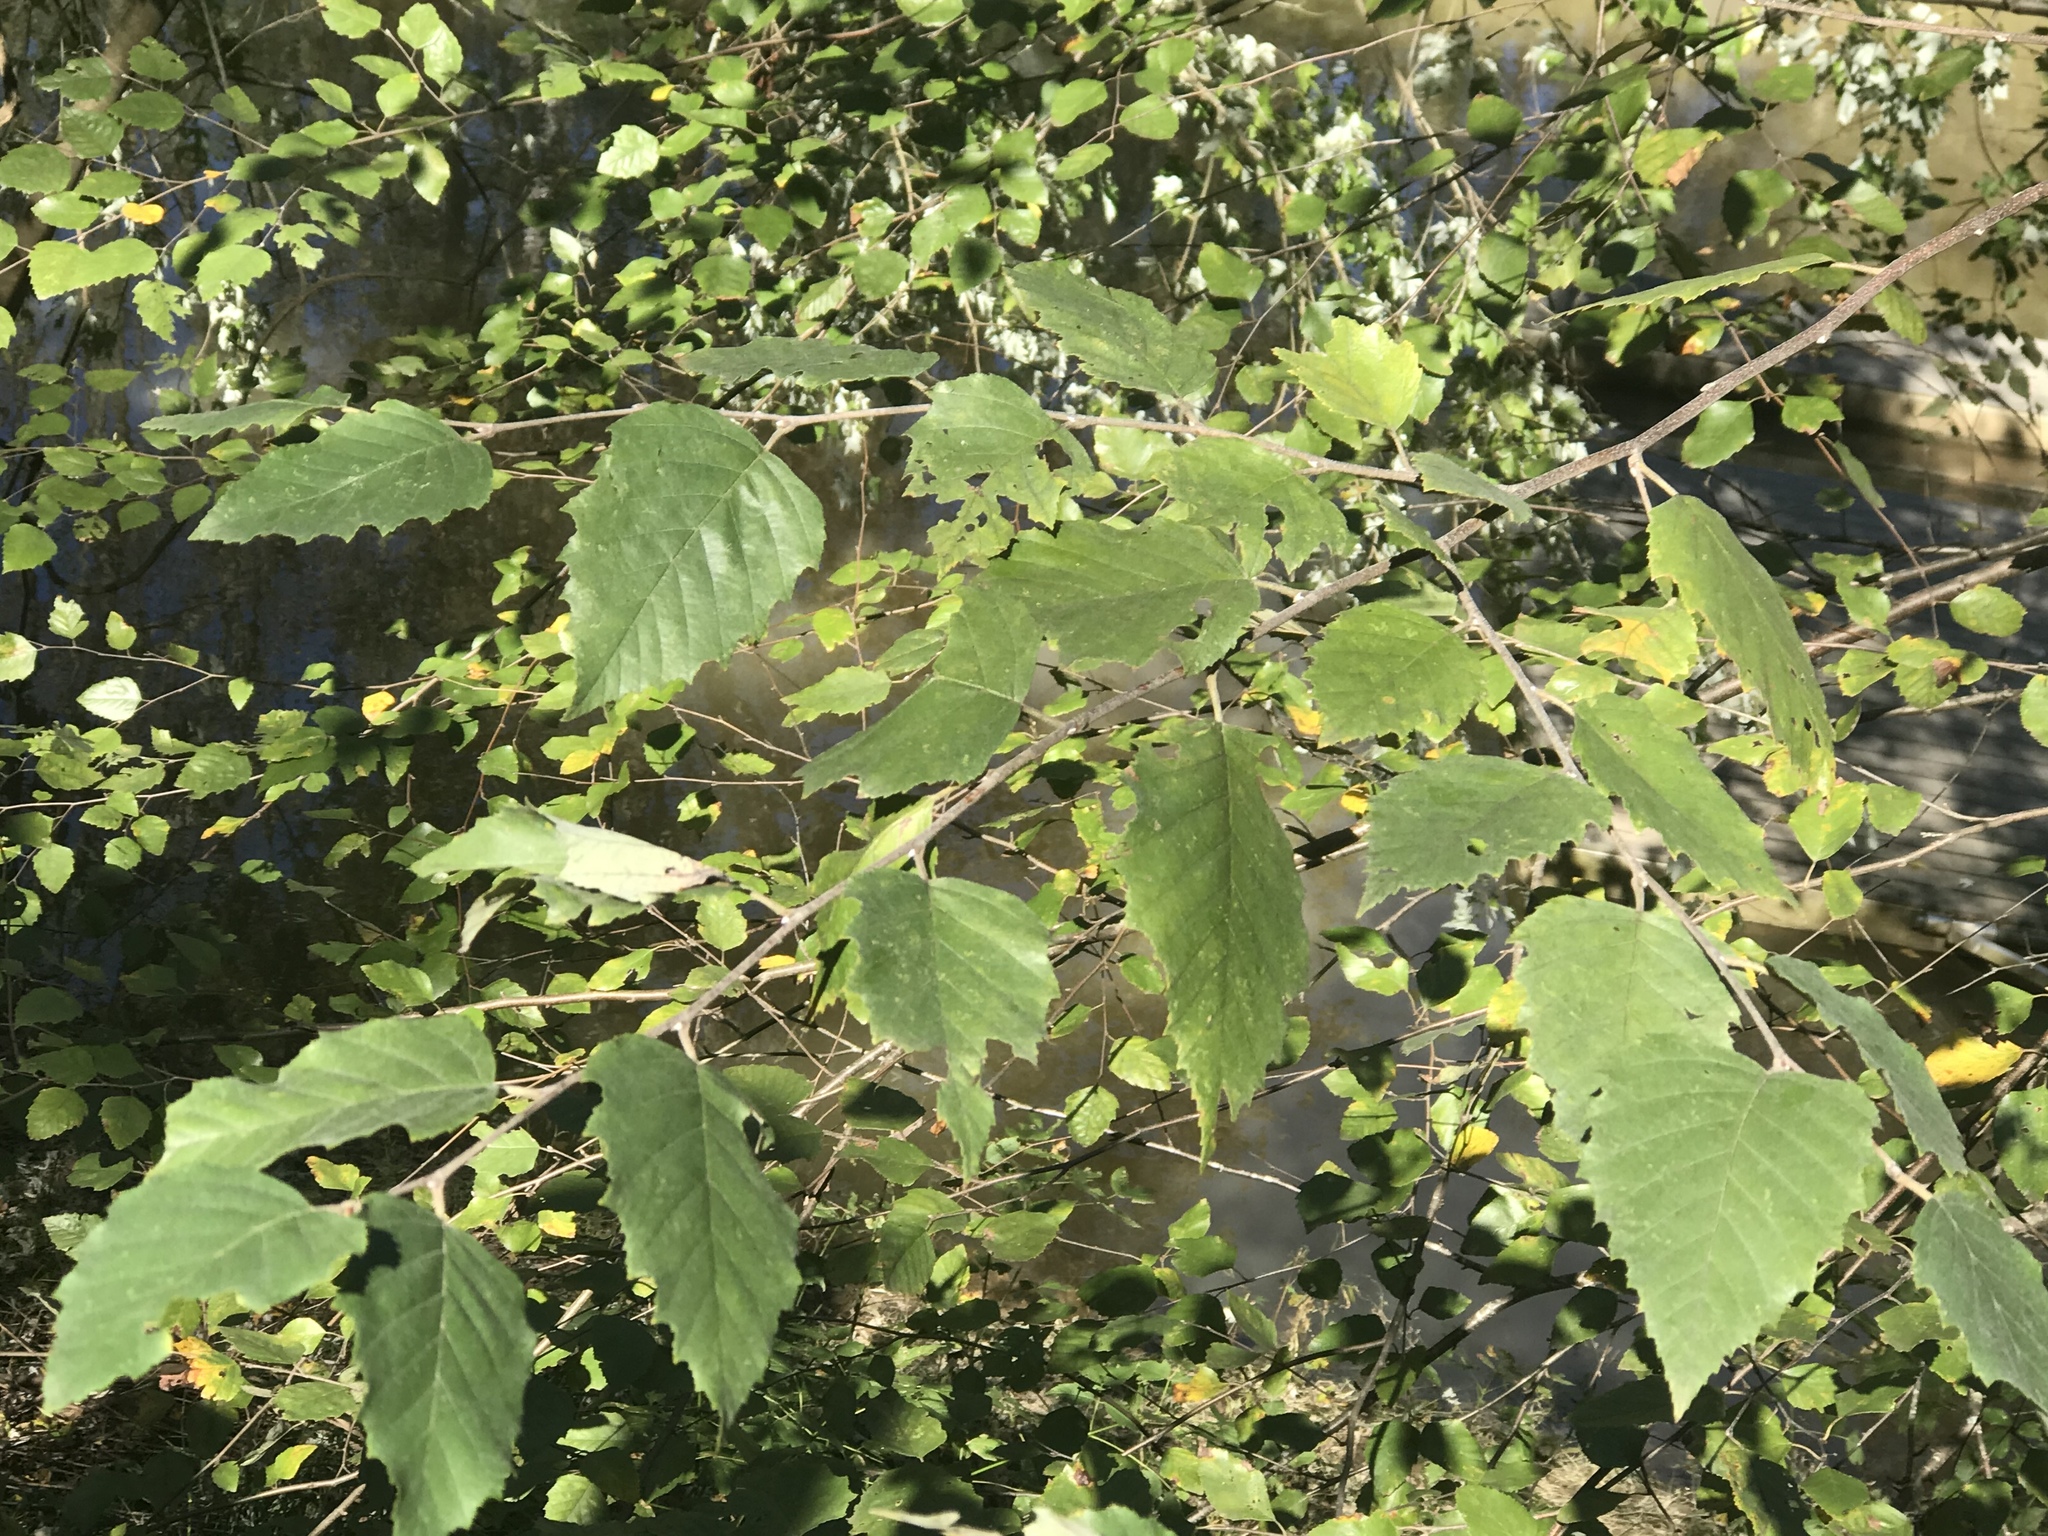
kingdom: Plantae
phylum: Tracheophyta
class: Magnoliopsida
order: Fagales
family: Betulaceae
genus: Betula
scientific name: Betula nigra
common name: Black birch
